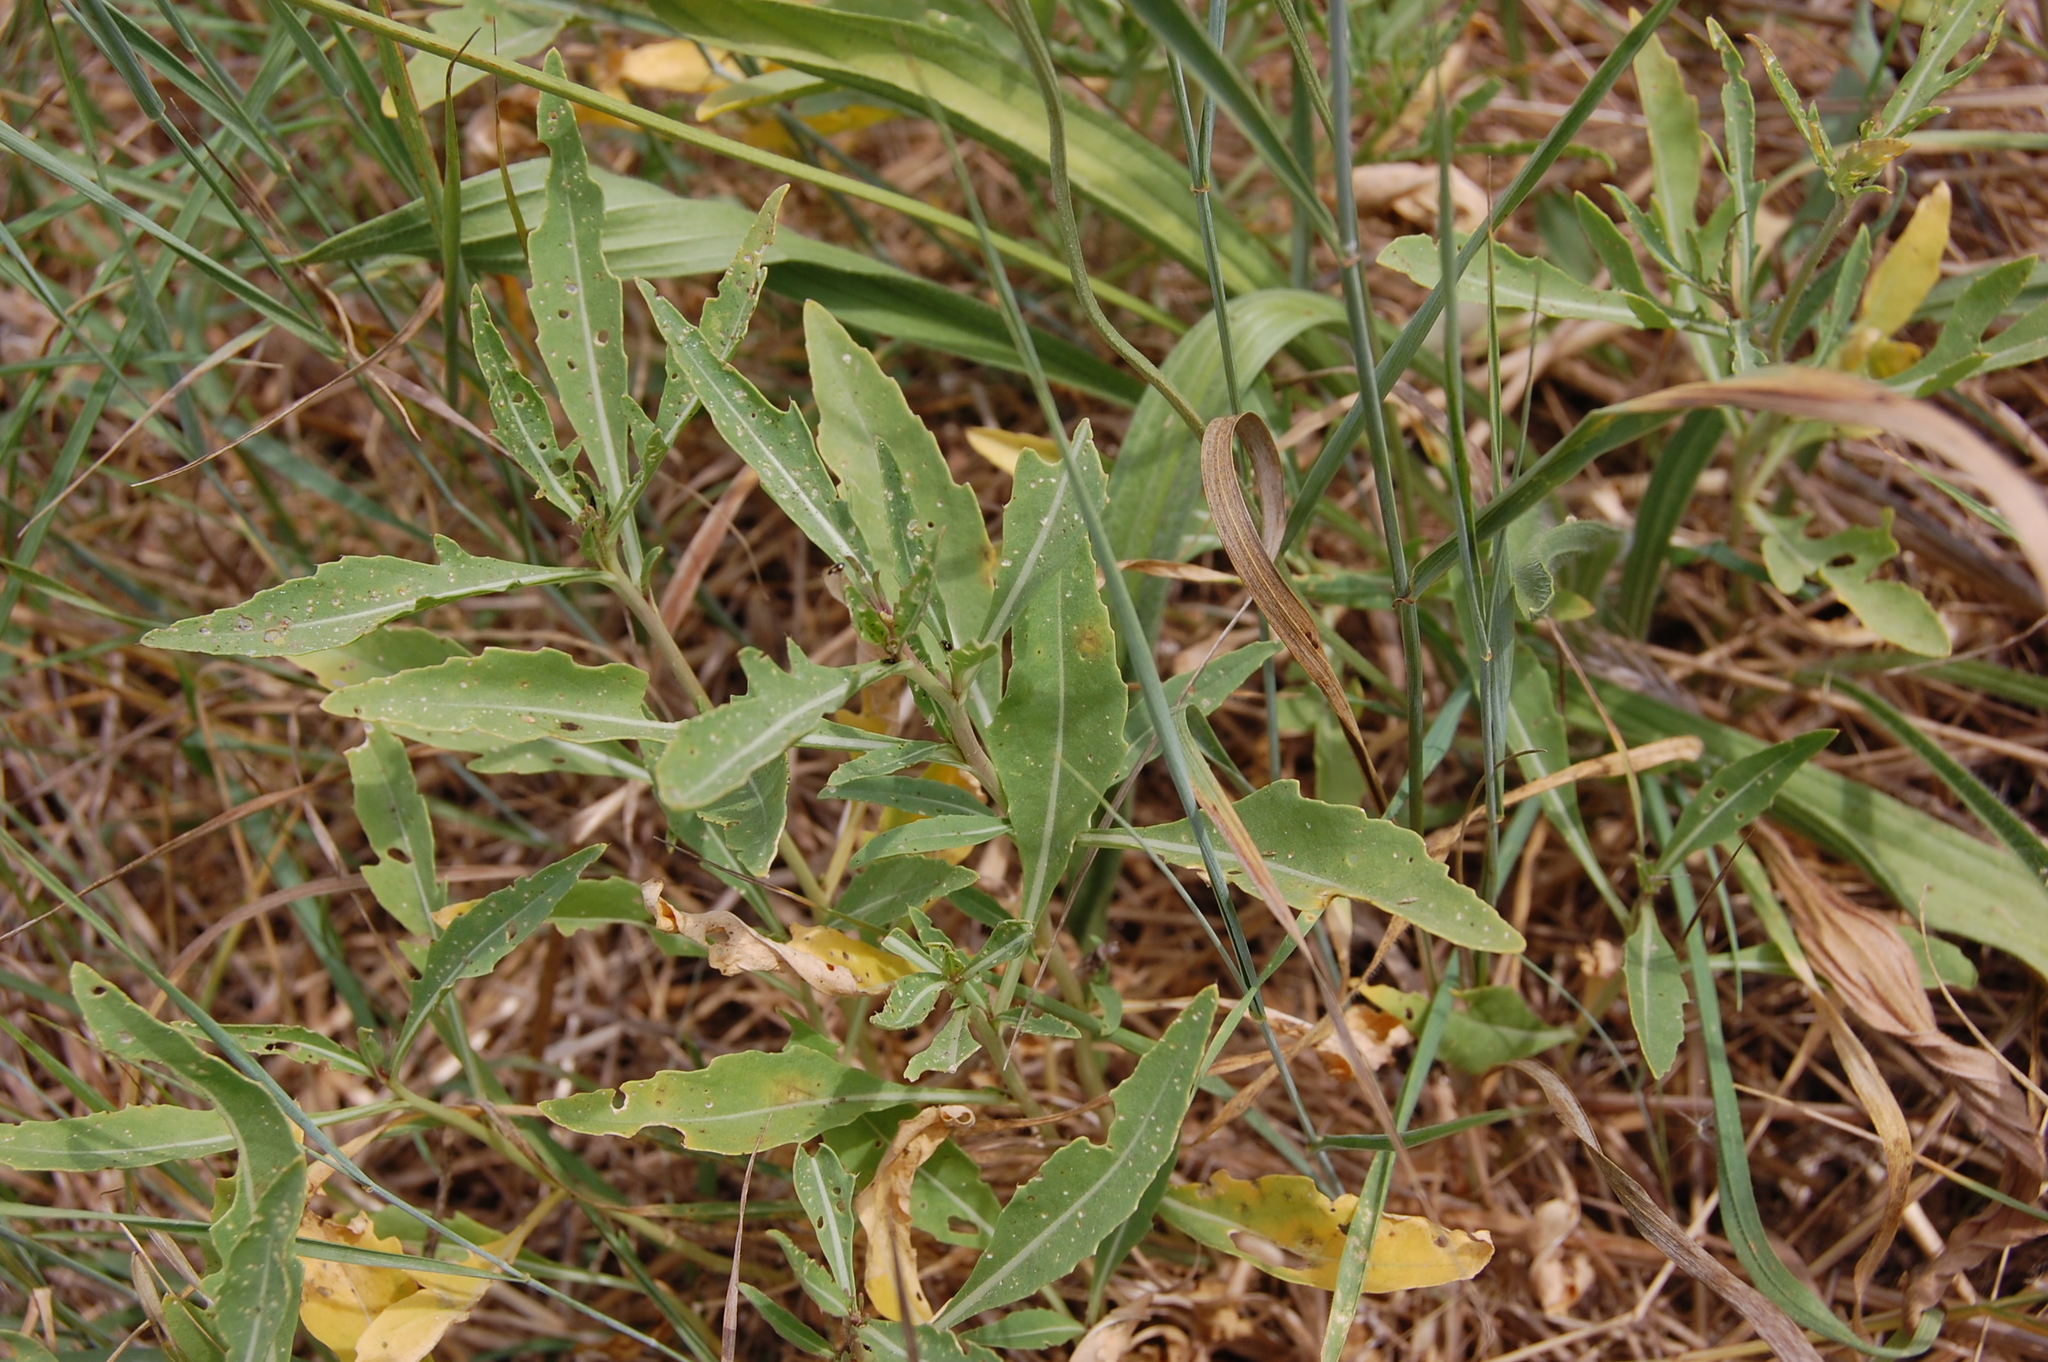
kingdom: Plantae
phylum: Tracheophyta
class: Magnoliopsida
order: Brassicales
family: Brassicaceae
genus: Diplotaxis
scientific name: Diplotaxis tenuifolia
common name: Perennial wall-rocket
